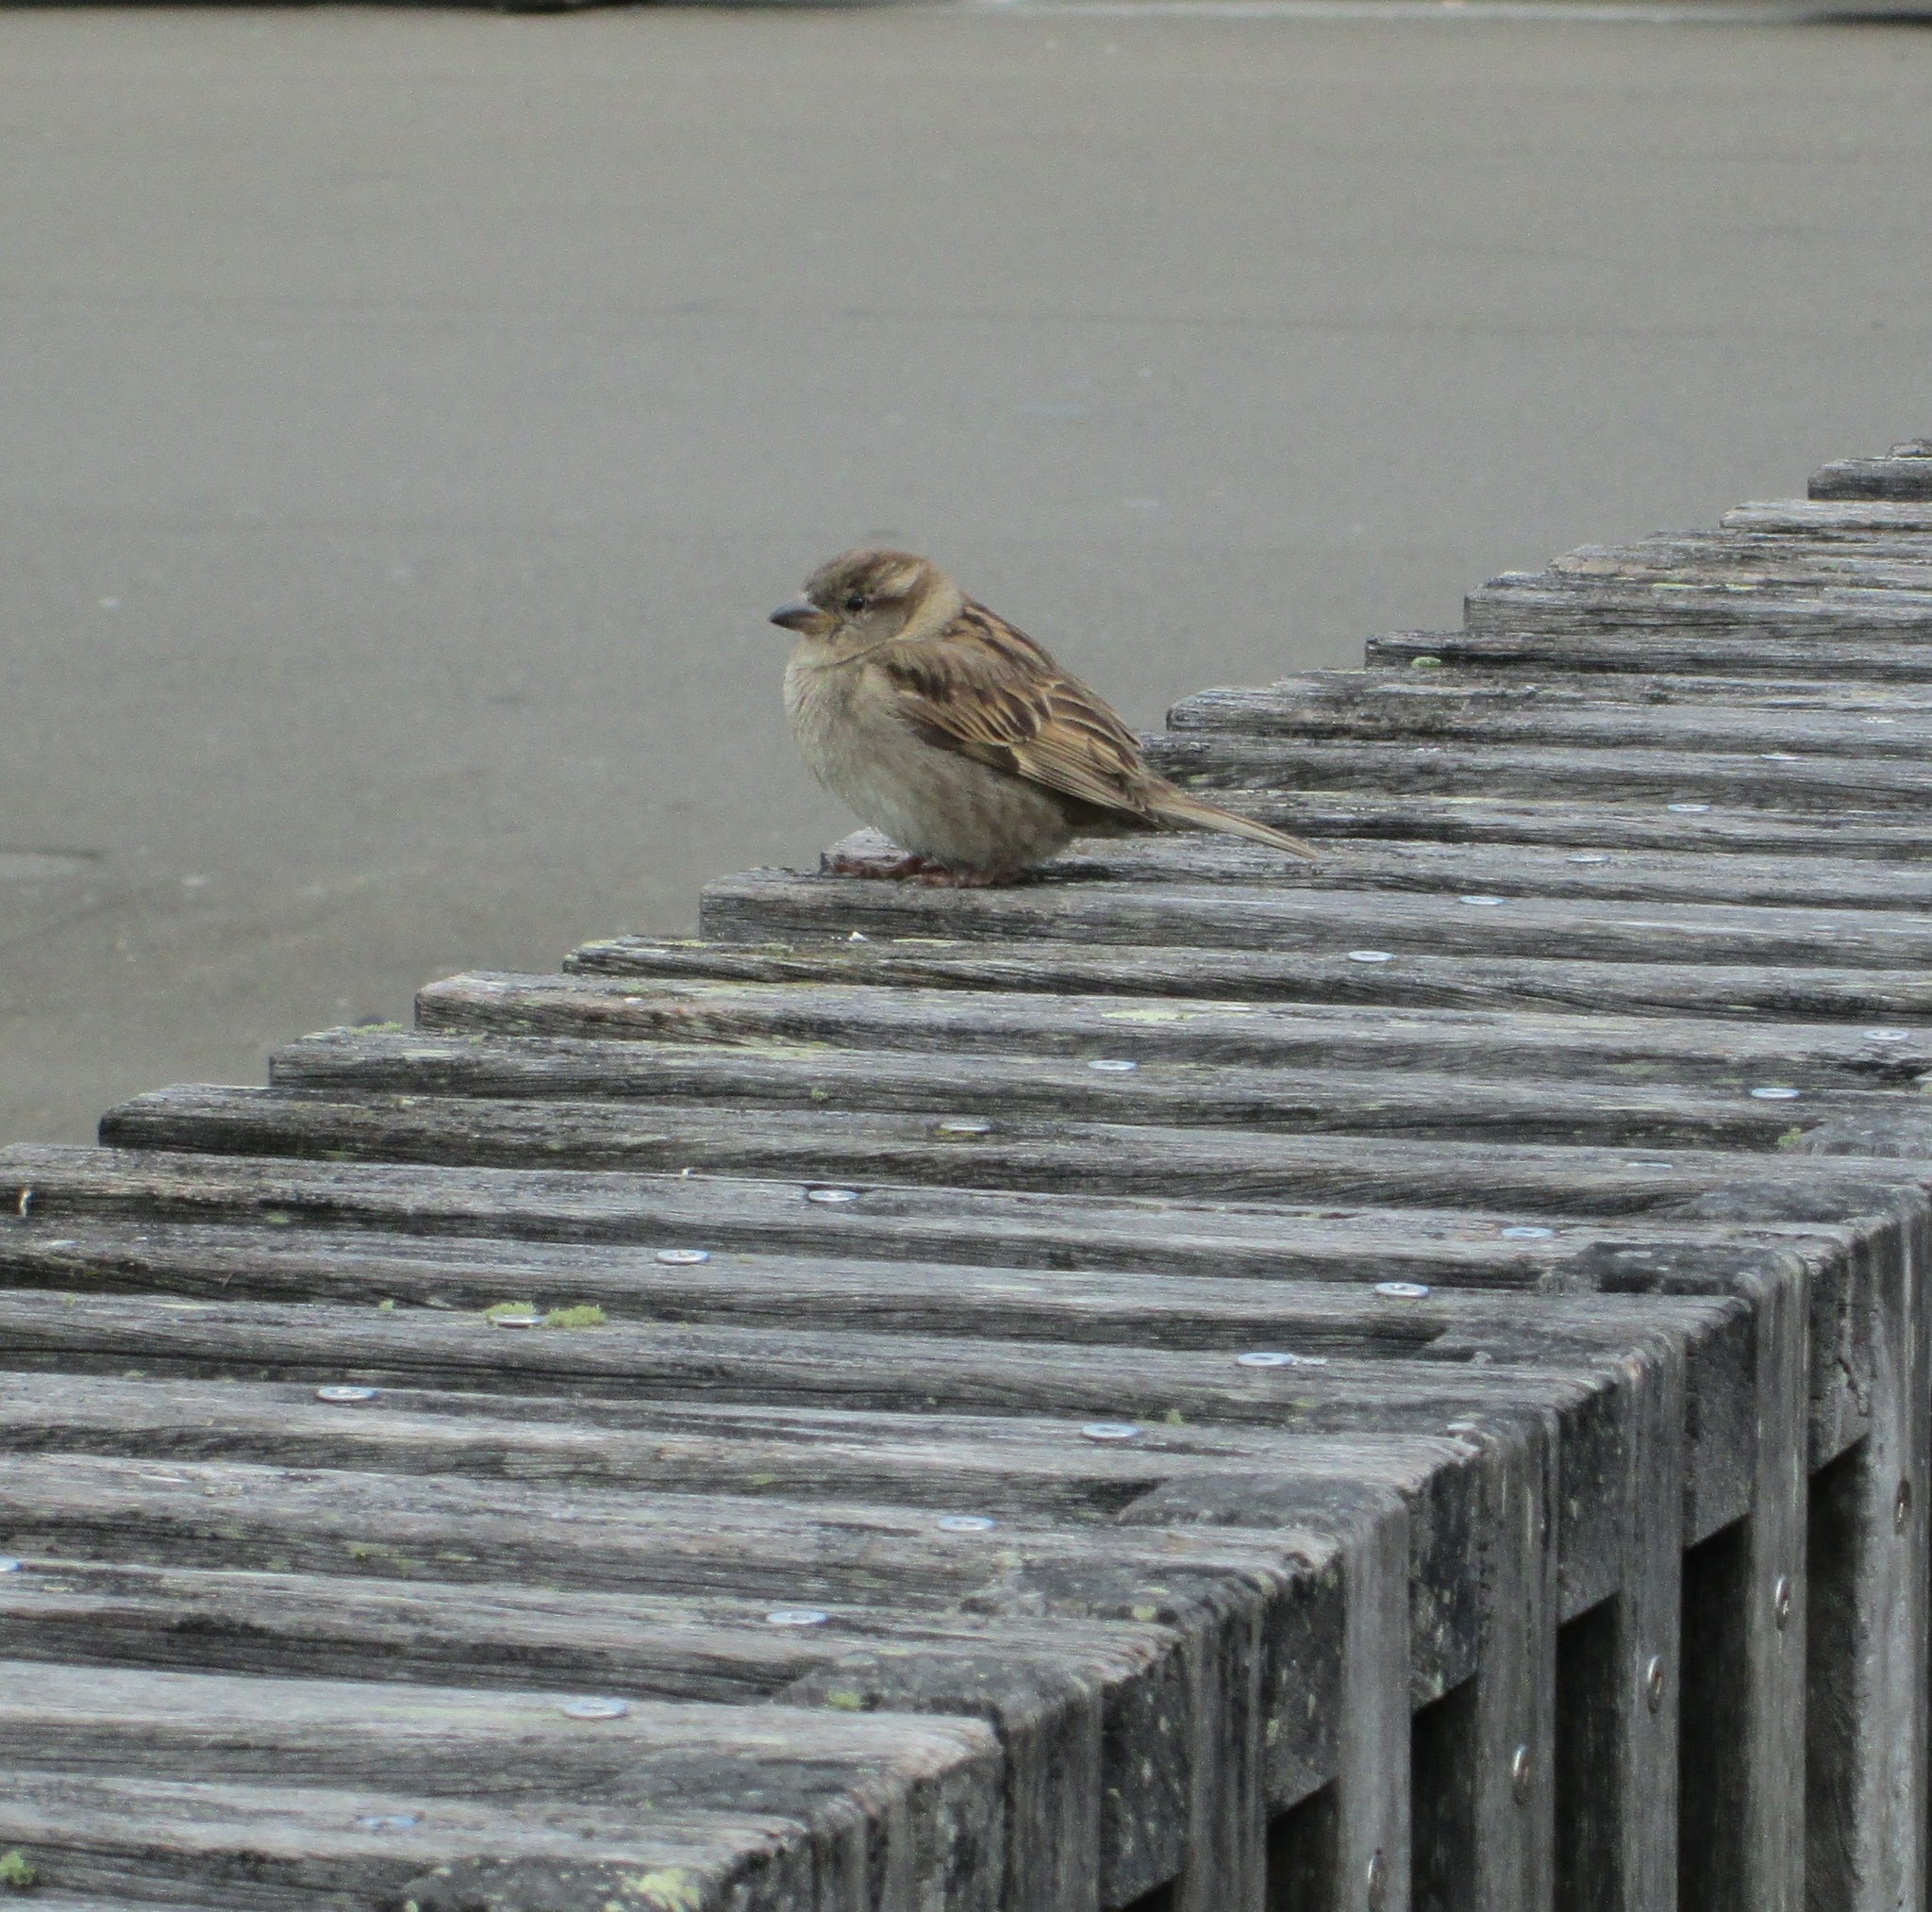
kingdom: Animalia
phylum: Chordata
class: Aves
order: Passeriformes
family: Passeridae
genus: Passer
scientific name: Passer domesticus
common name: House sparrow
